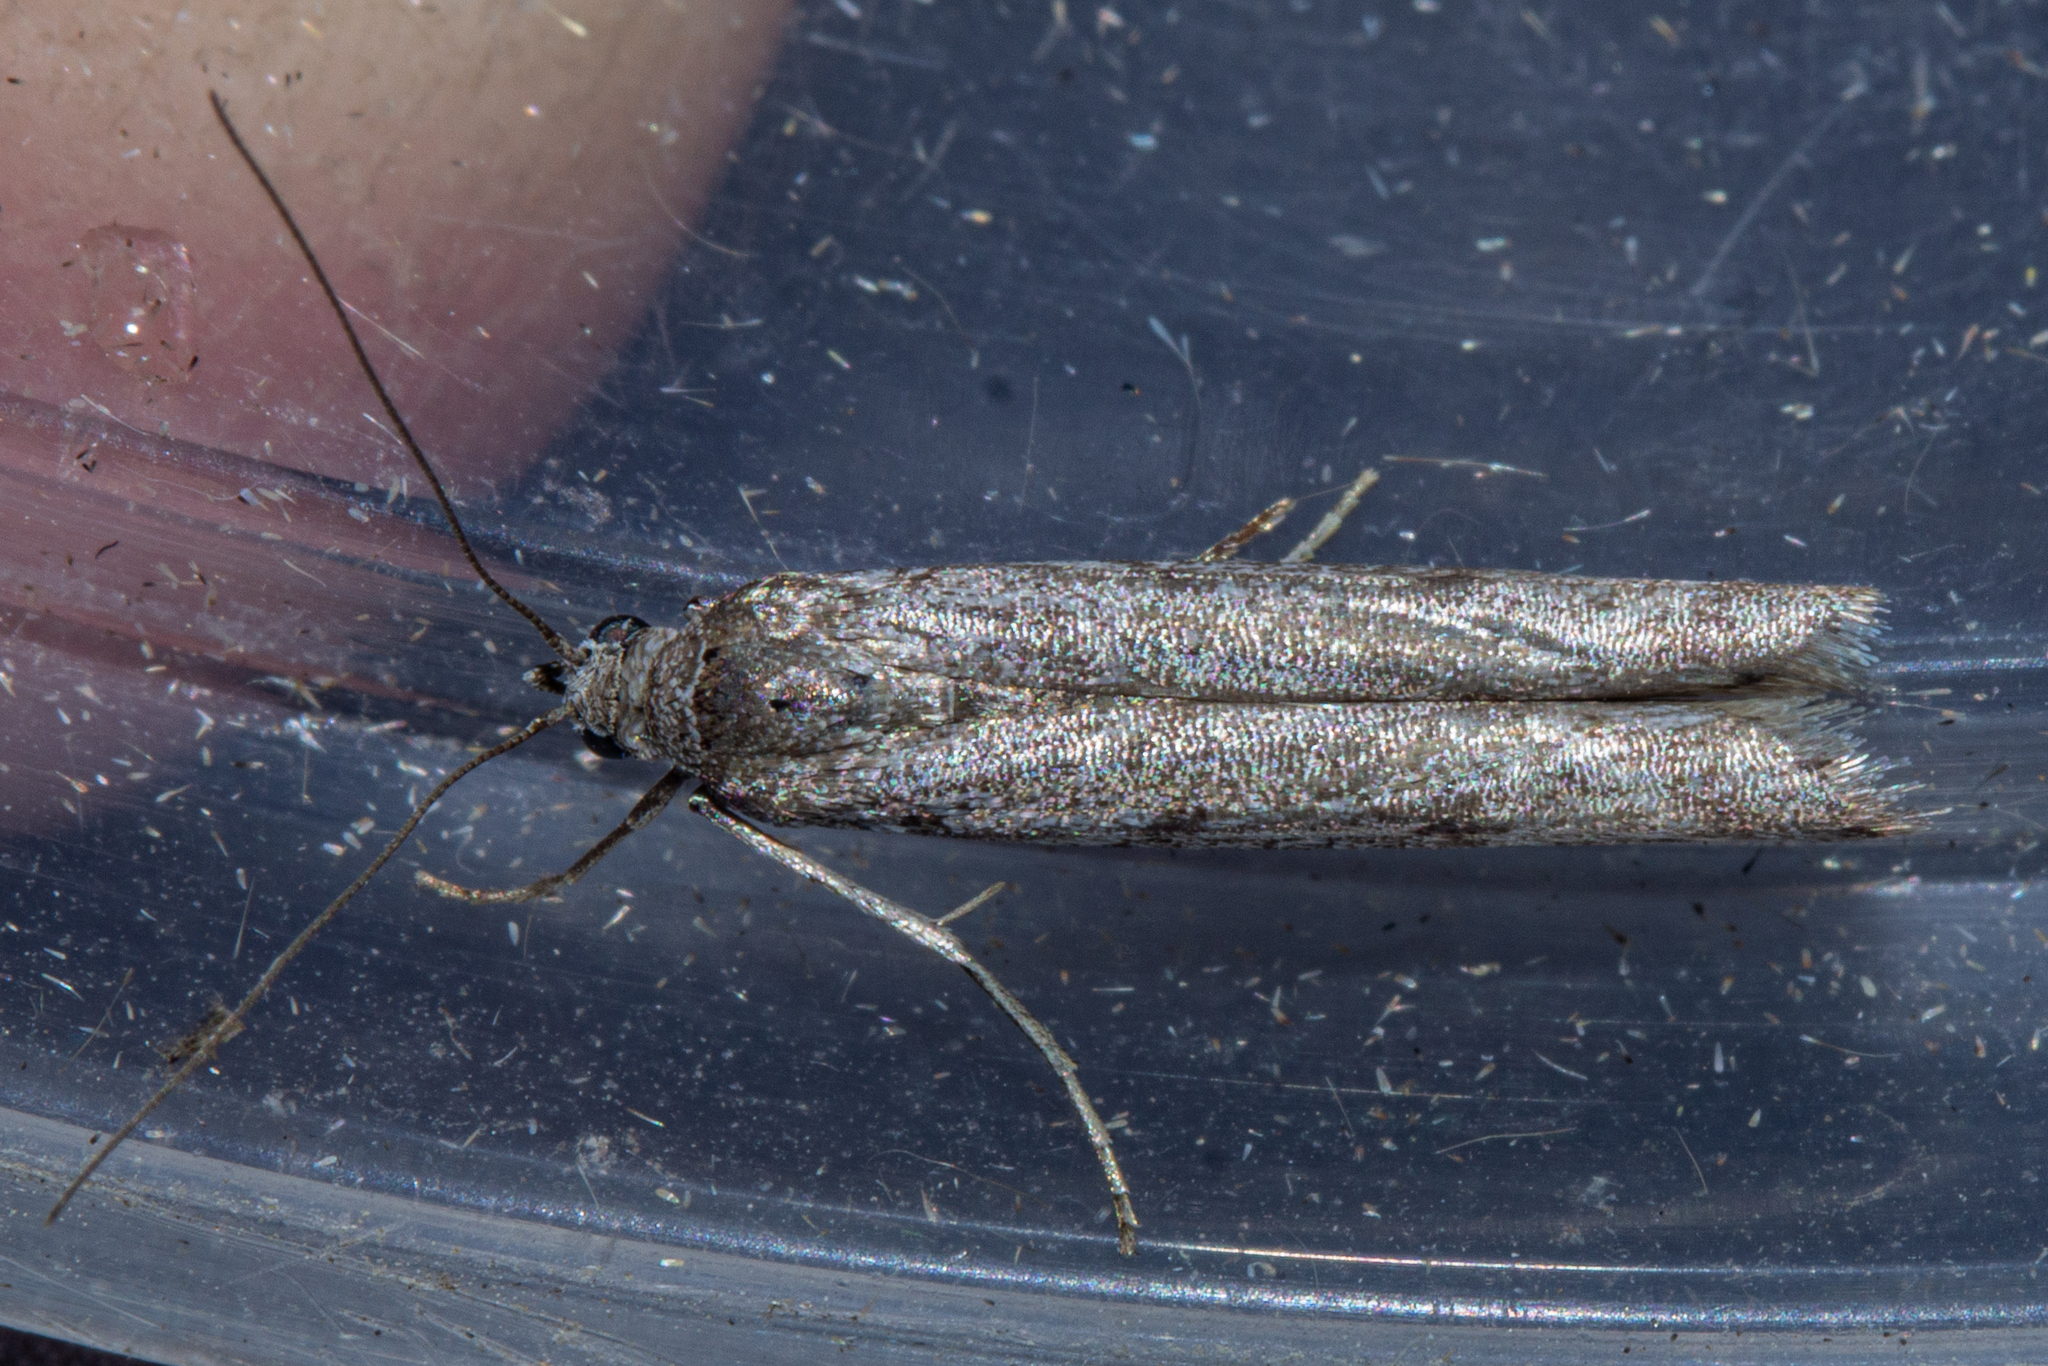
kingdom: Animalia
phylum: Arthropoda
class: Insecta
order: Lepidoptera
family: Pyralidae
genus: Patagoniodes
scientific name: Patagoniodes farinaria
